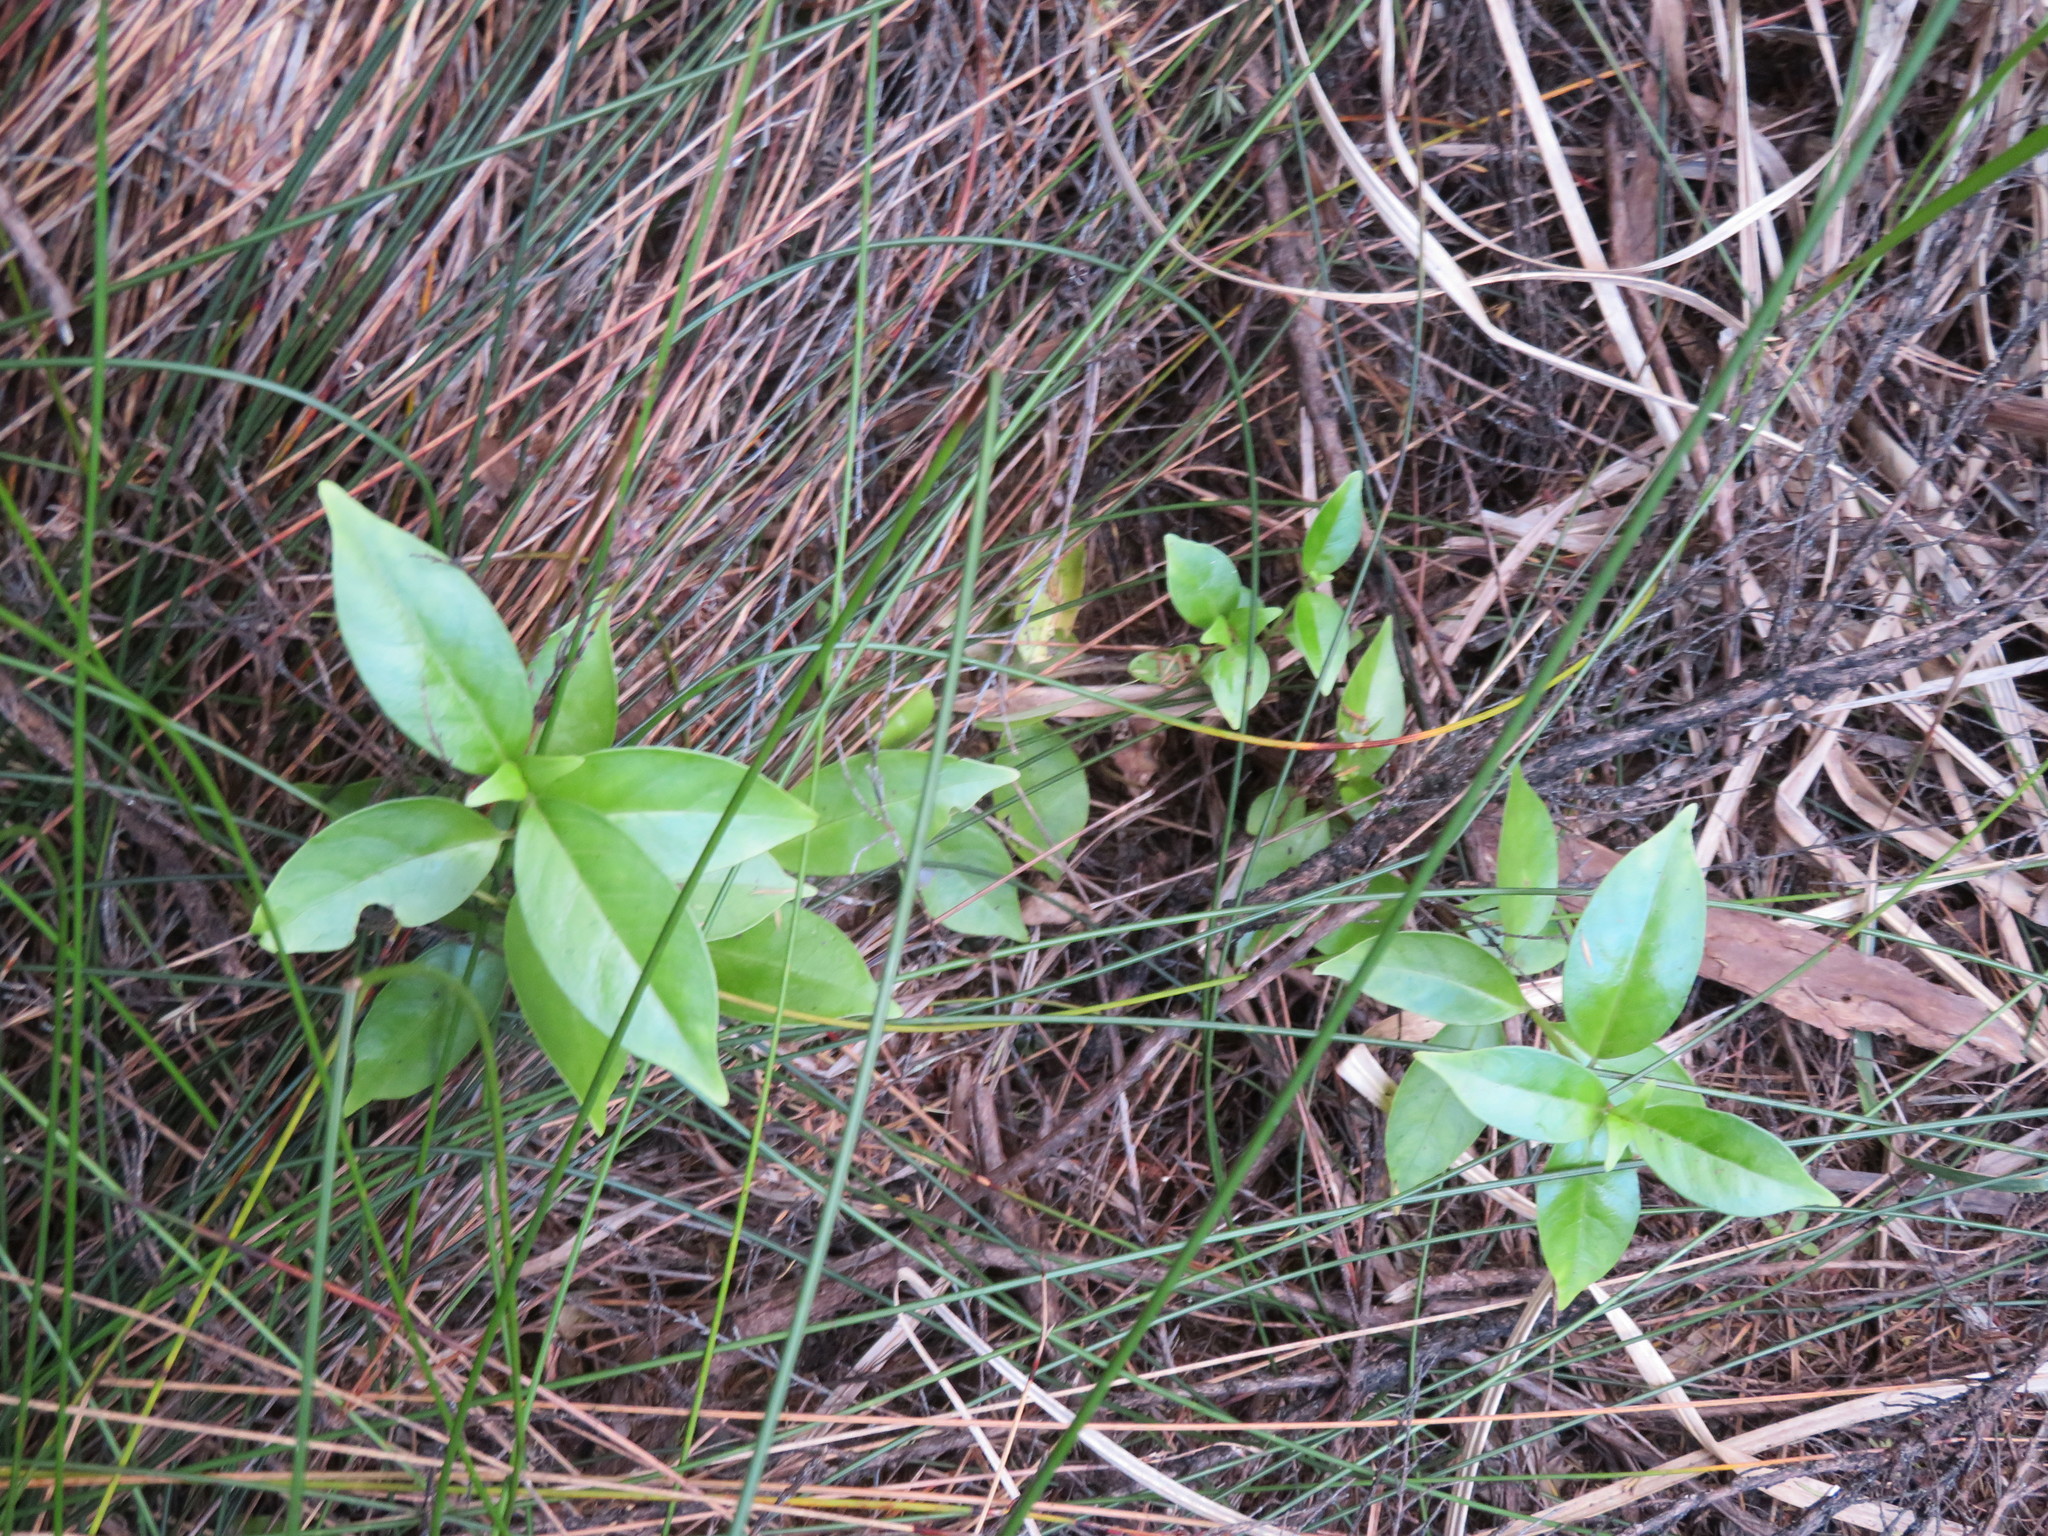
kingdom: Plantae
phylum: Tracheophyta
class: Magnoliopsida
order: Gentianales
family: Loganiaceae
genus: Geniostoma
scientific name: Geniostoma ligustrifolium
